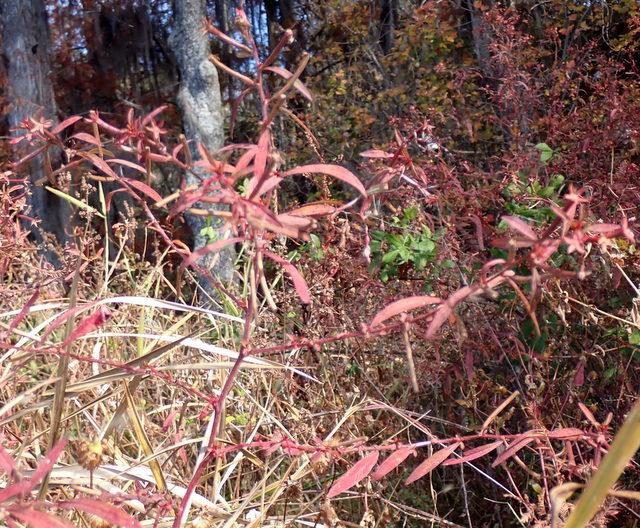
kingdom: Plantae
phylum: Tracheophyta
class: Magnoliopsida
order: Myrtales
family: Onagraceae
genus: Ludwigia
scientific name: Ludwigia leptocarpa
